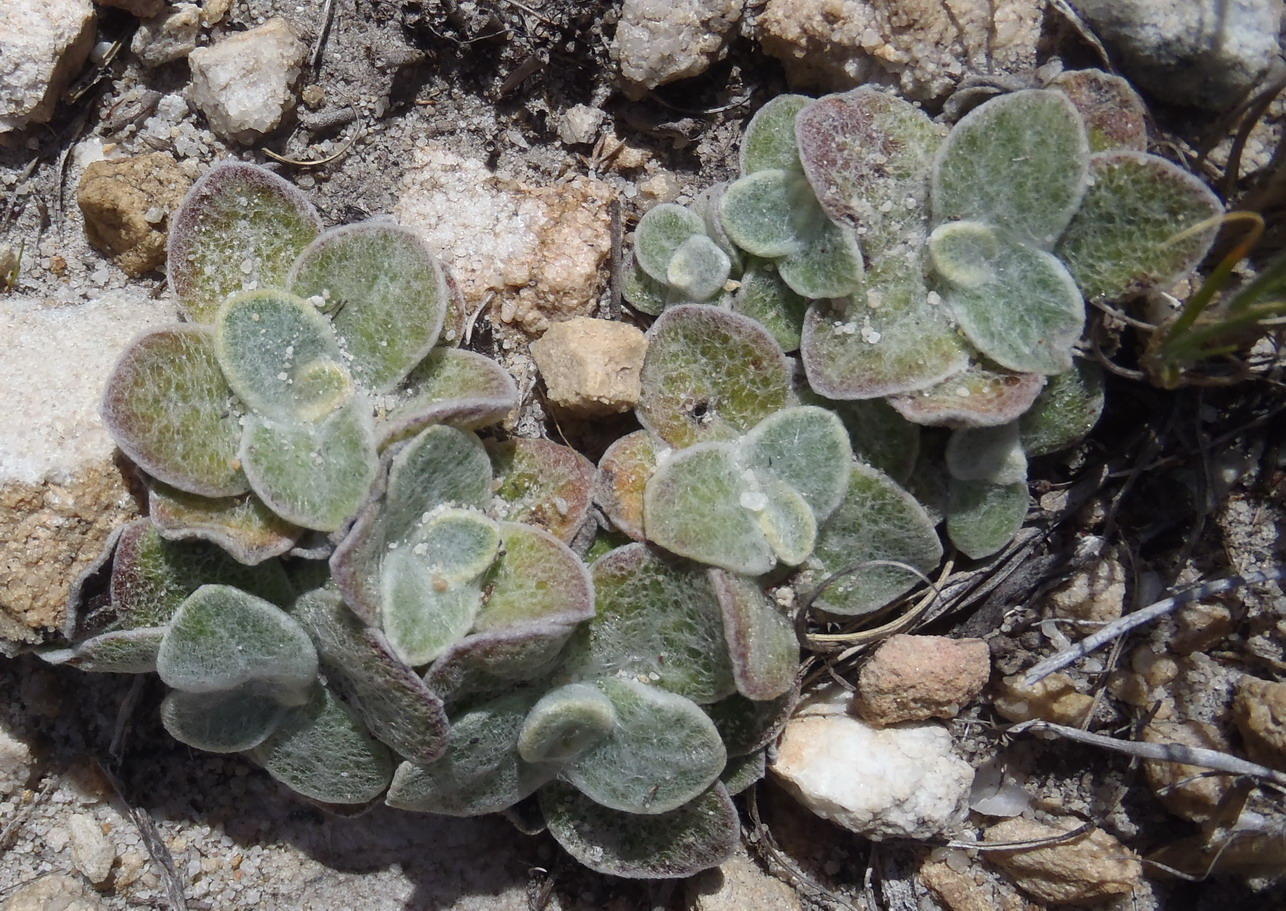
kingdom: Plantae
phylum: Tracheophyta
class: Magnoliopsida
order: Asterales
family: Asteraceae
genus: Syncarpha
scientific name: Syncarpha montana
